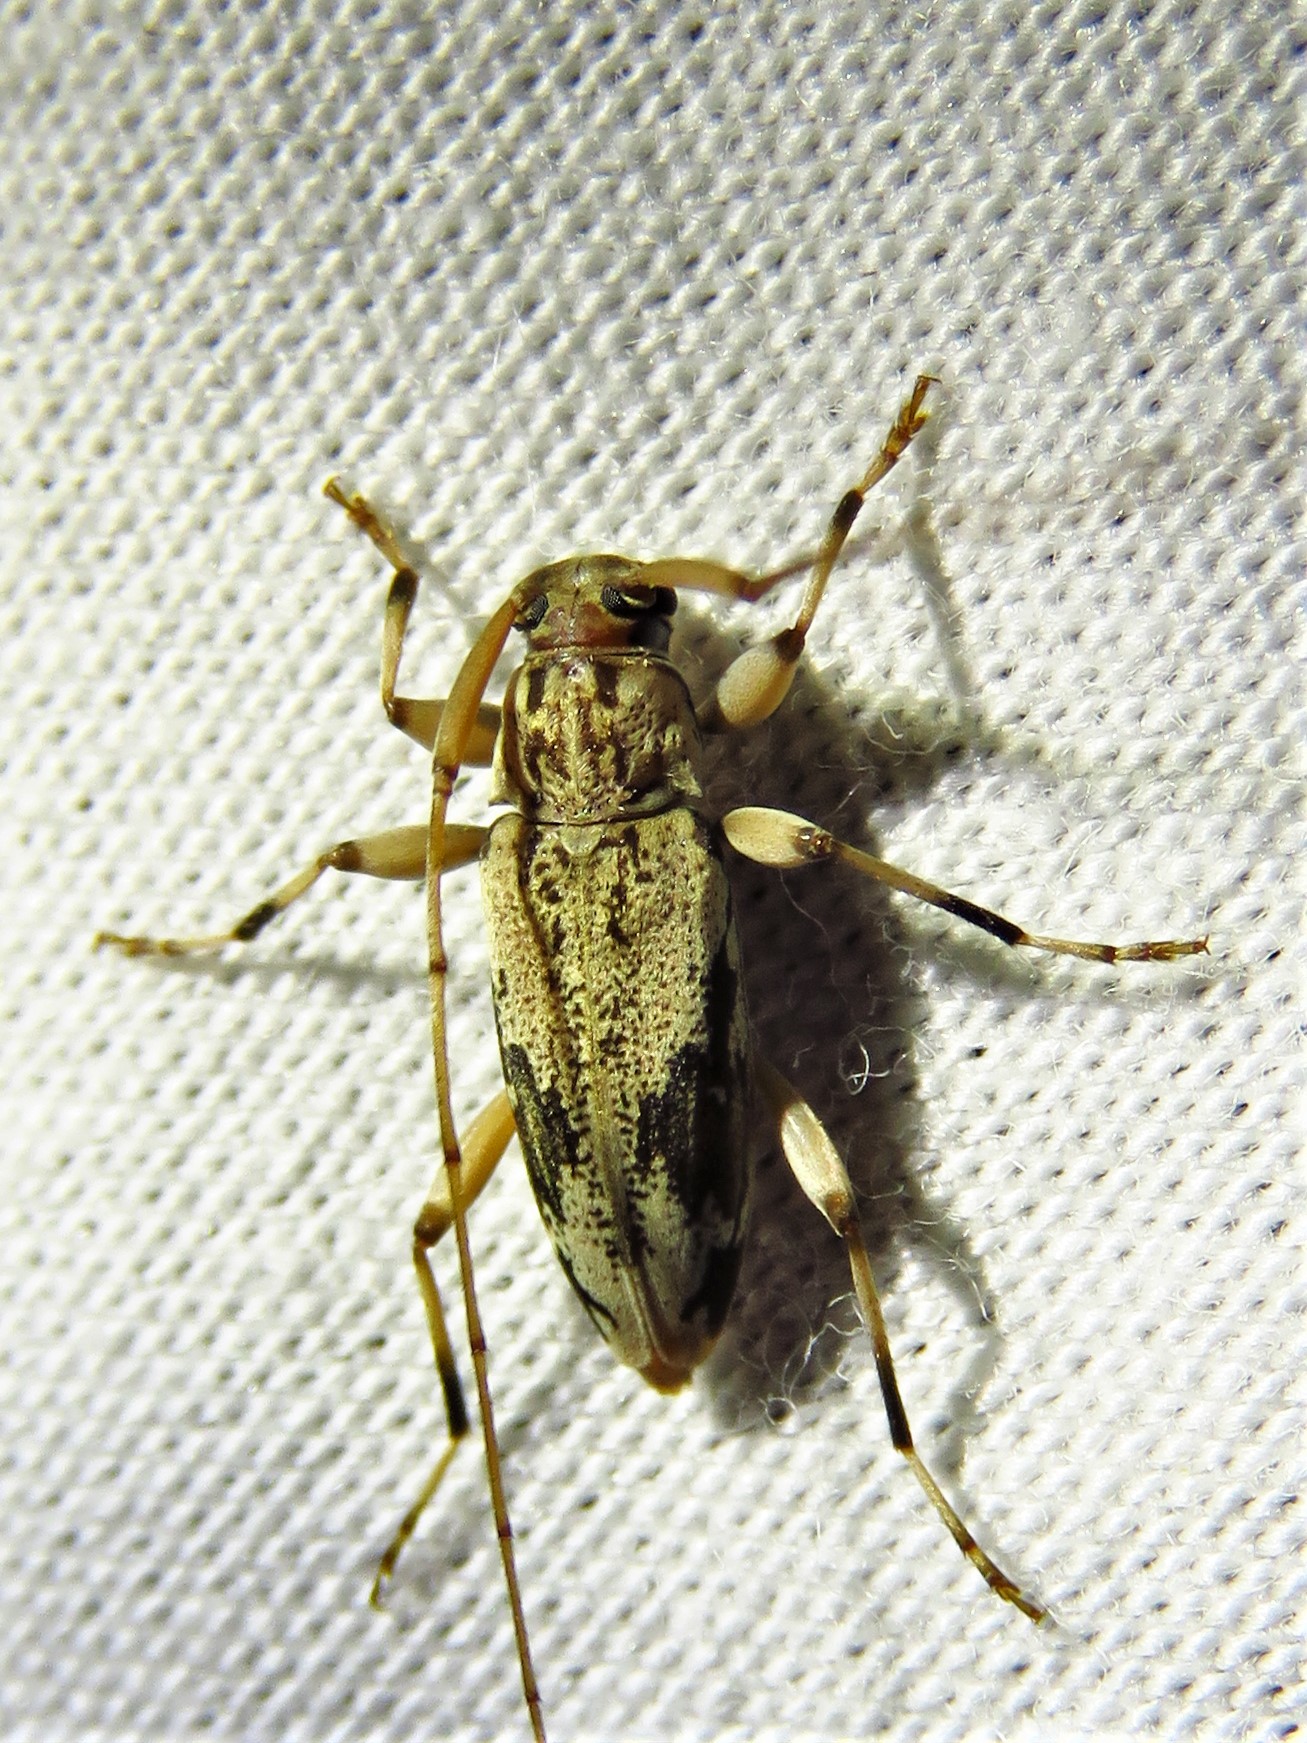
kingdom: Animalia
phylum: Arthropoda
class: Insecta
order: Coleoptera
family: Cerambycidae
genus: Lepturges
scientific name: Lepturges angulatus
